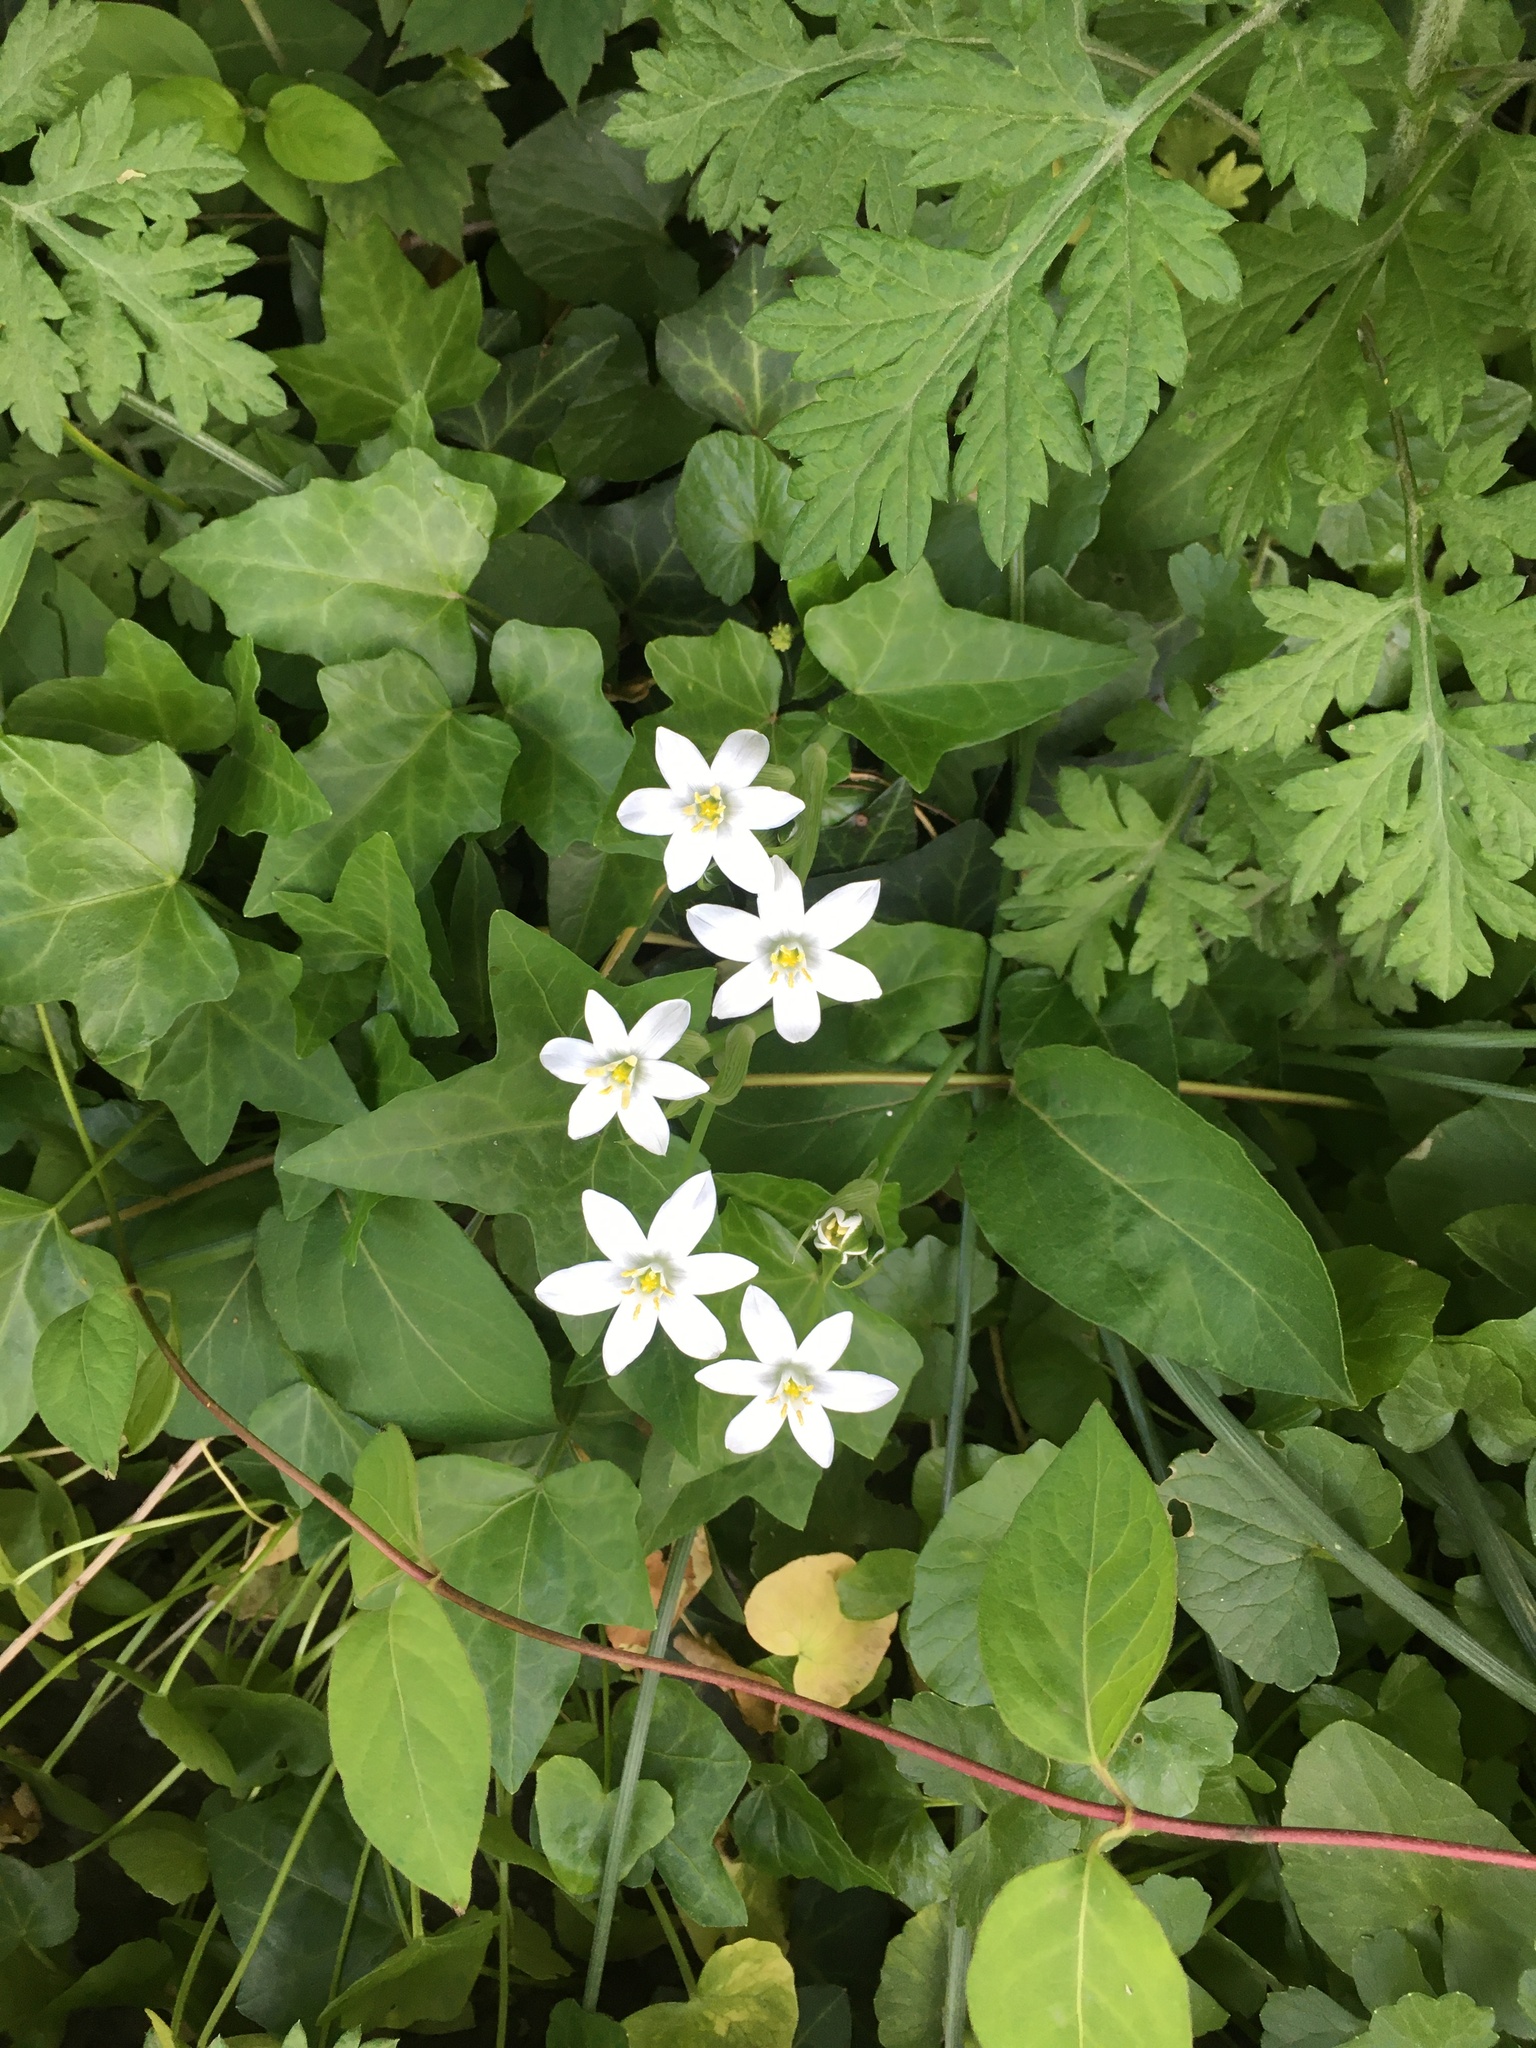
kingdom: Plantae
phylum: Tracheophyta
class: Liliopsida
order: Asparagales
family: Asparagaceae
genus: Ornithogalum
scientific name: Ornithogalum umbellatum
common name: Garden star-of-bethlehem
